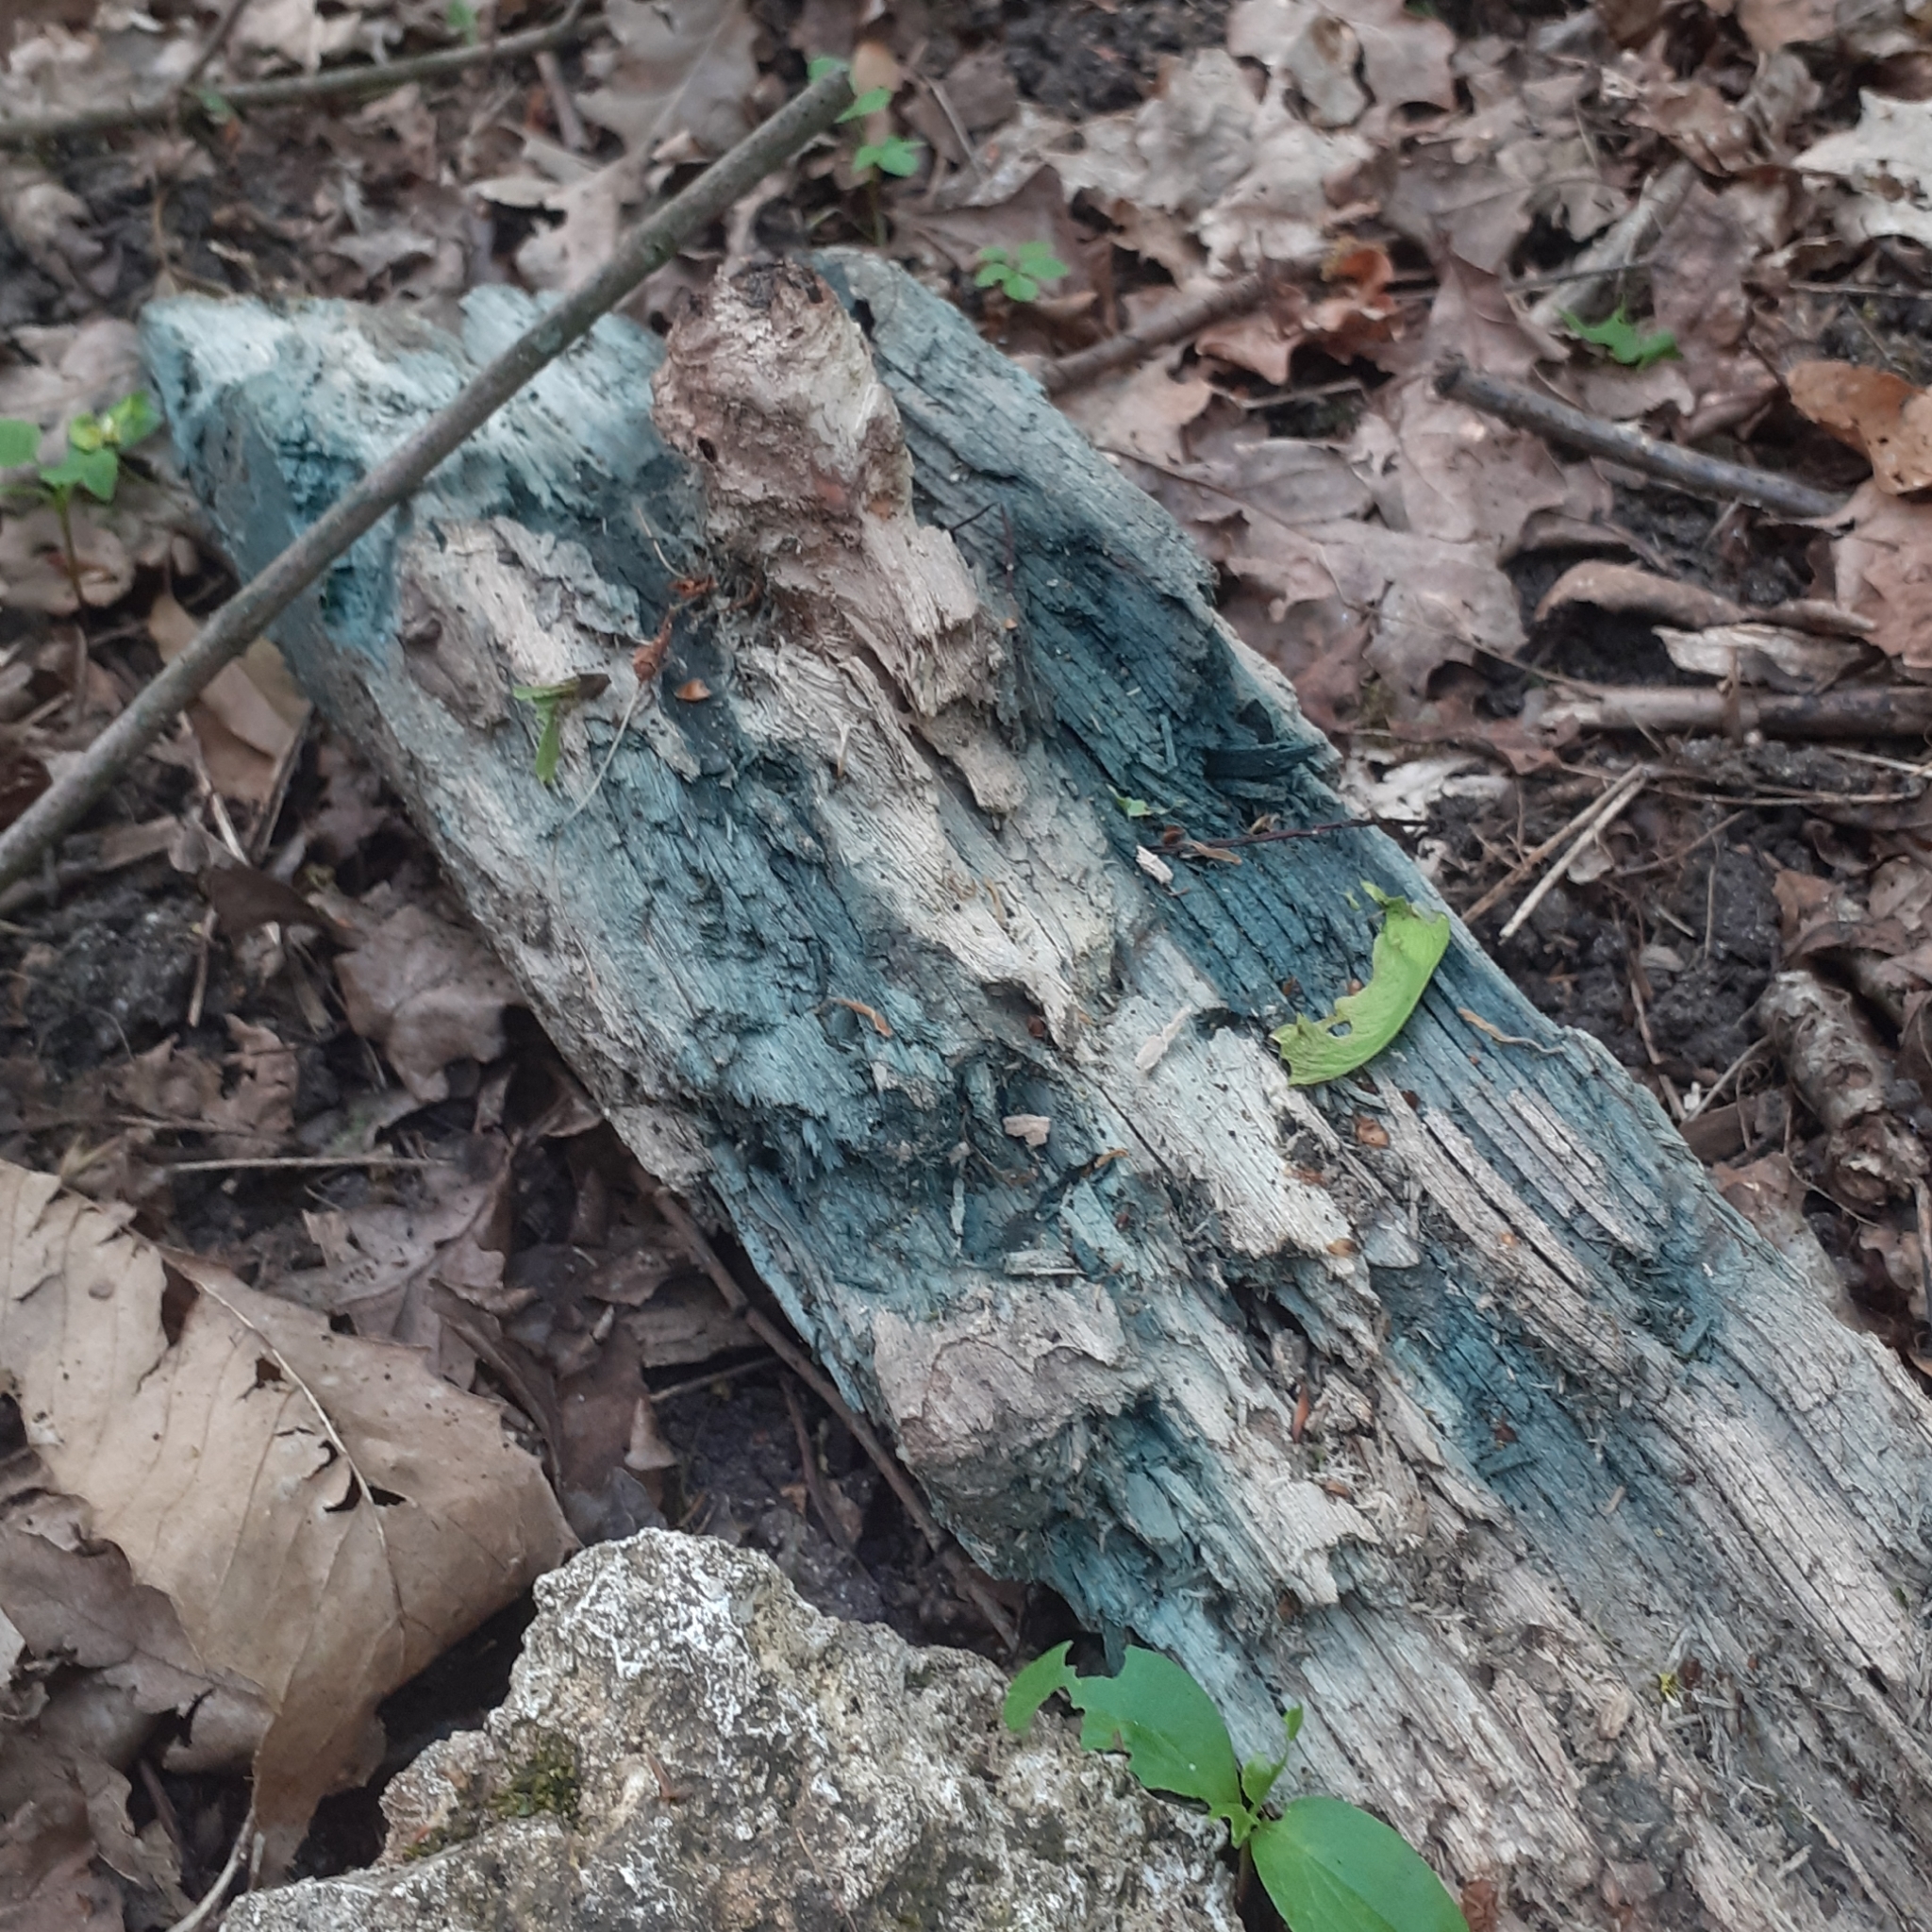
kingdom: Fungi
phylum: Ascomycota
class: Leotiomycetes
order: Helotiales
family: Chlorociboriaceae
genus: Chlorociboria
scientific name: Chlorociboria
